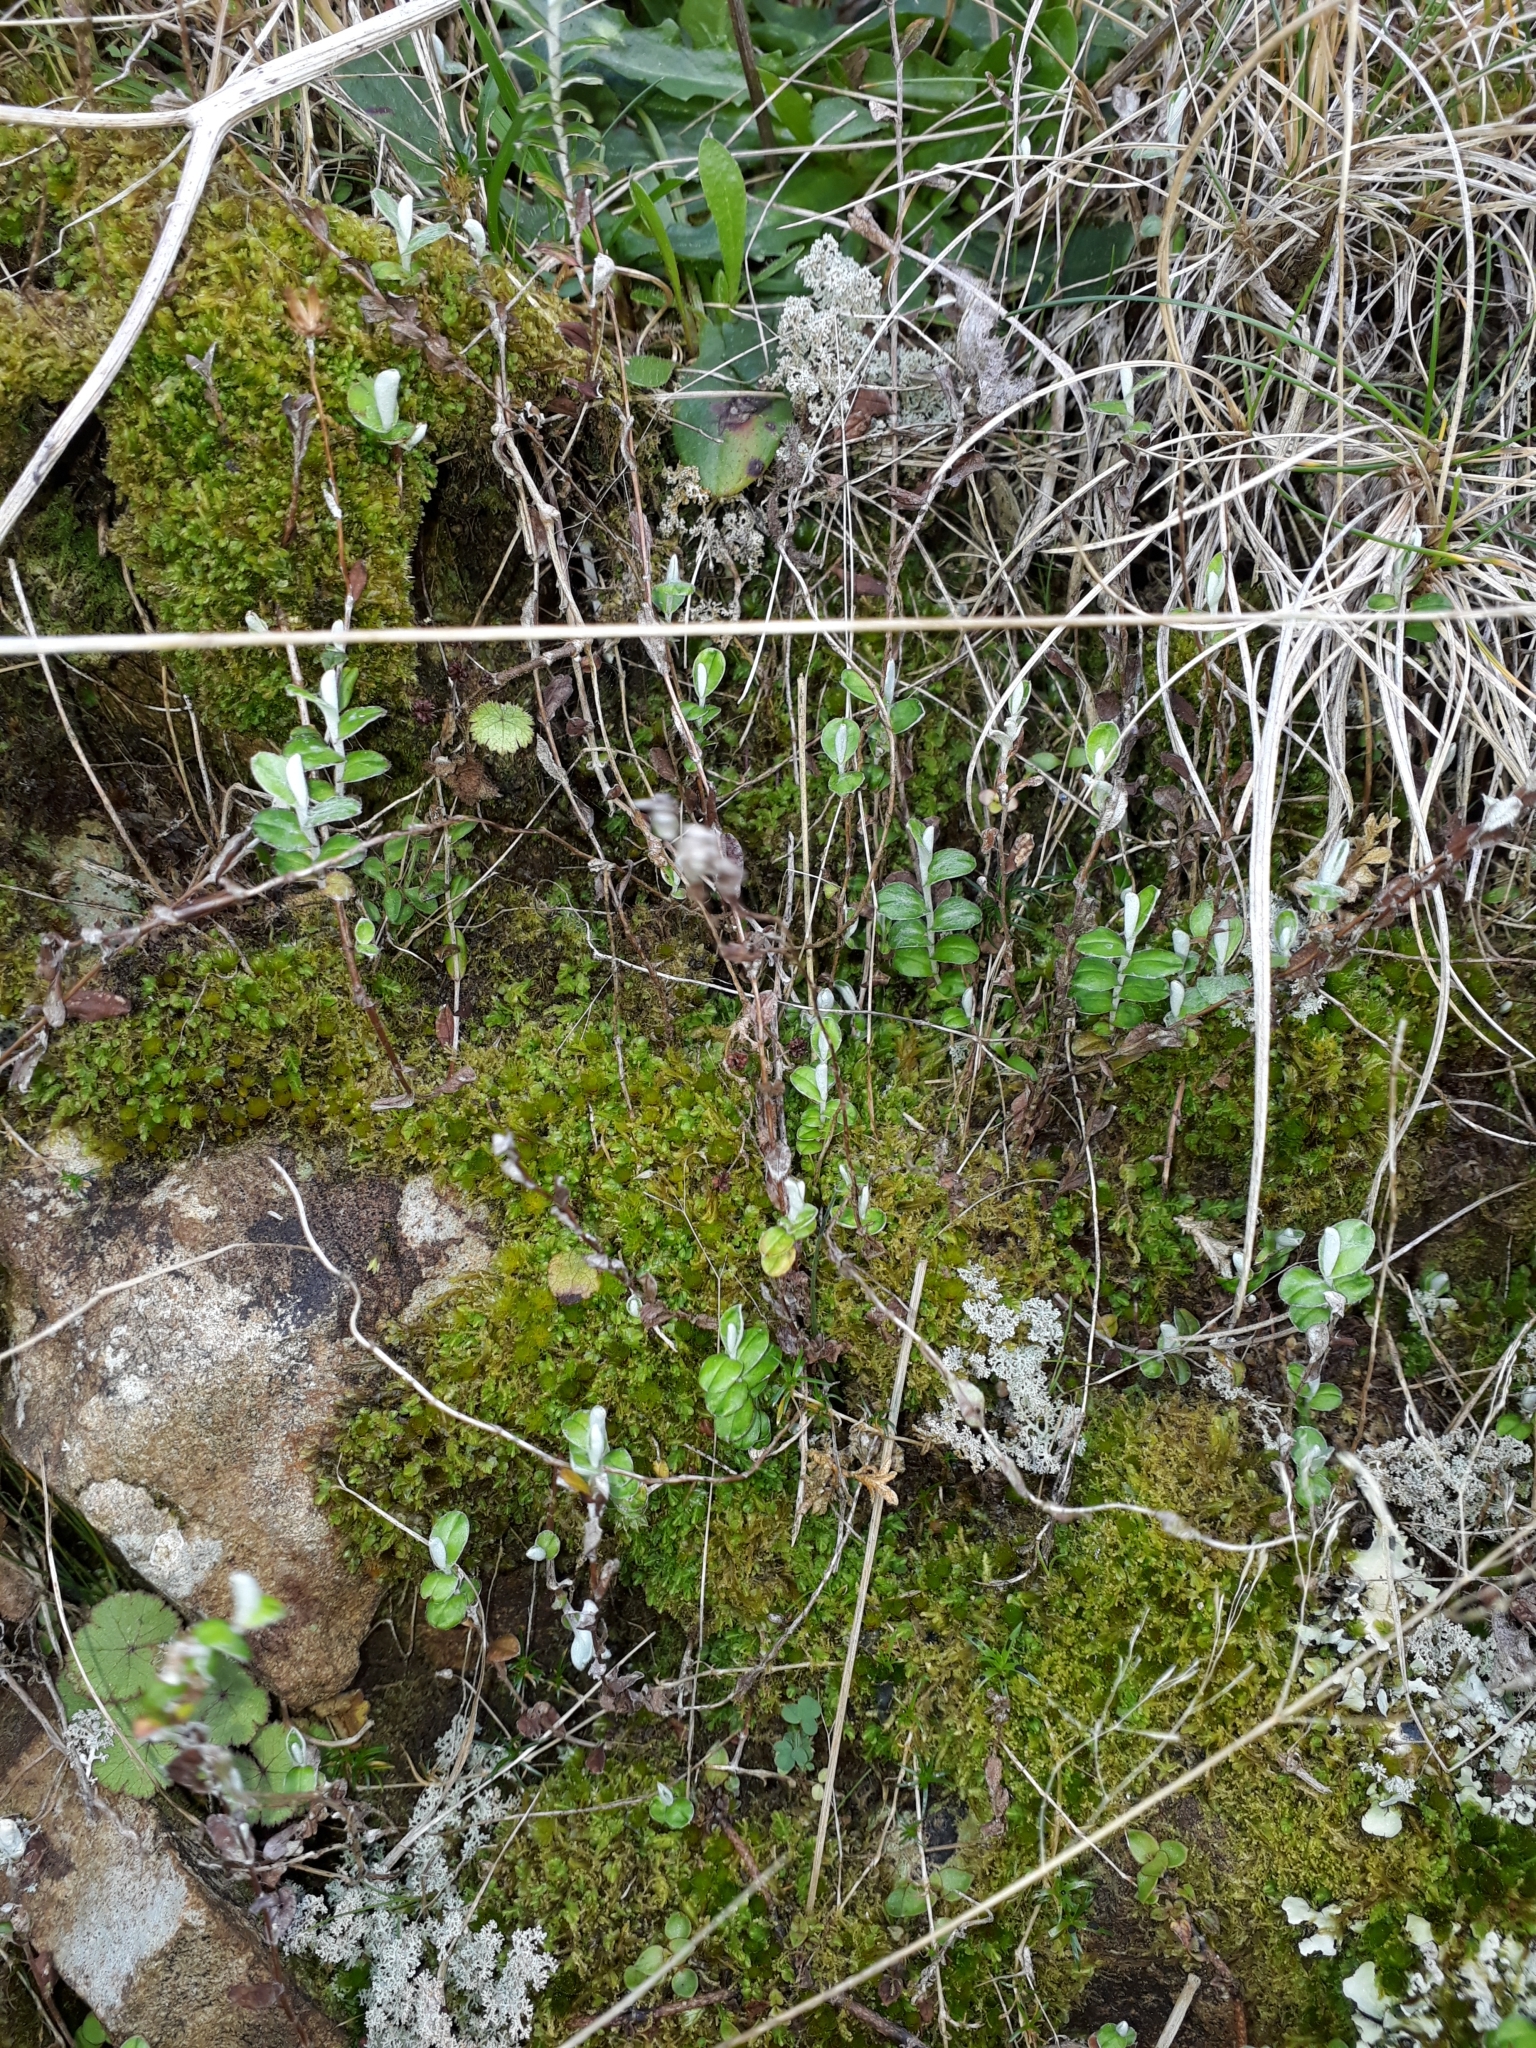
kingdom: Plantae
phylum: Tracheophyta
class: Magnoliopsida
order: Asterales
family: Asteraceae
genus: Helichrysum
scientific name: Helichrysum filicaule
